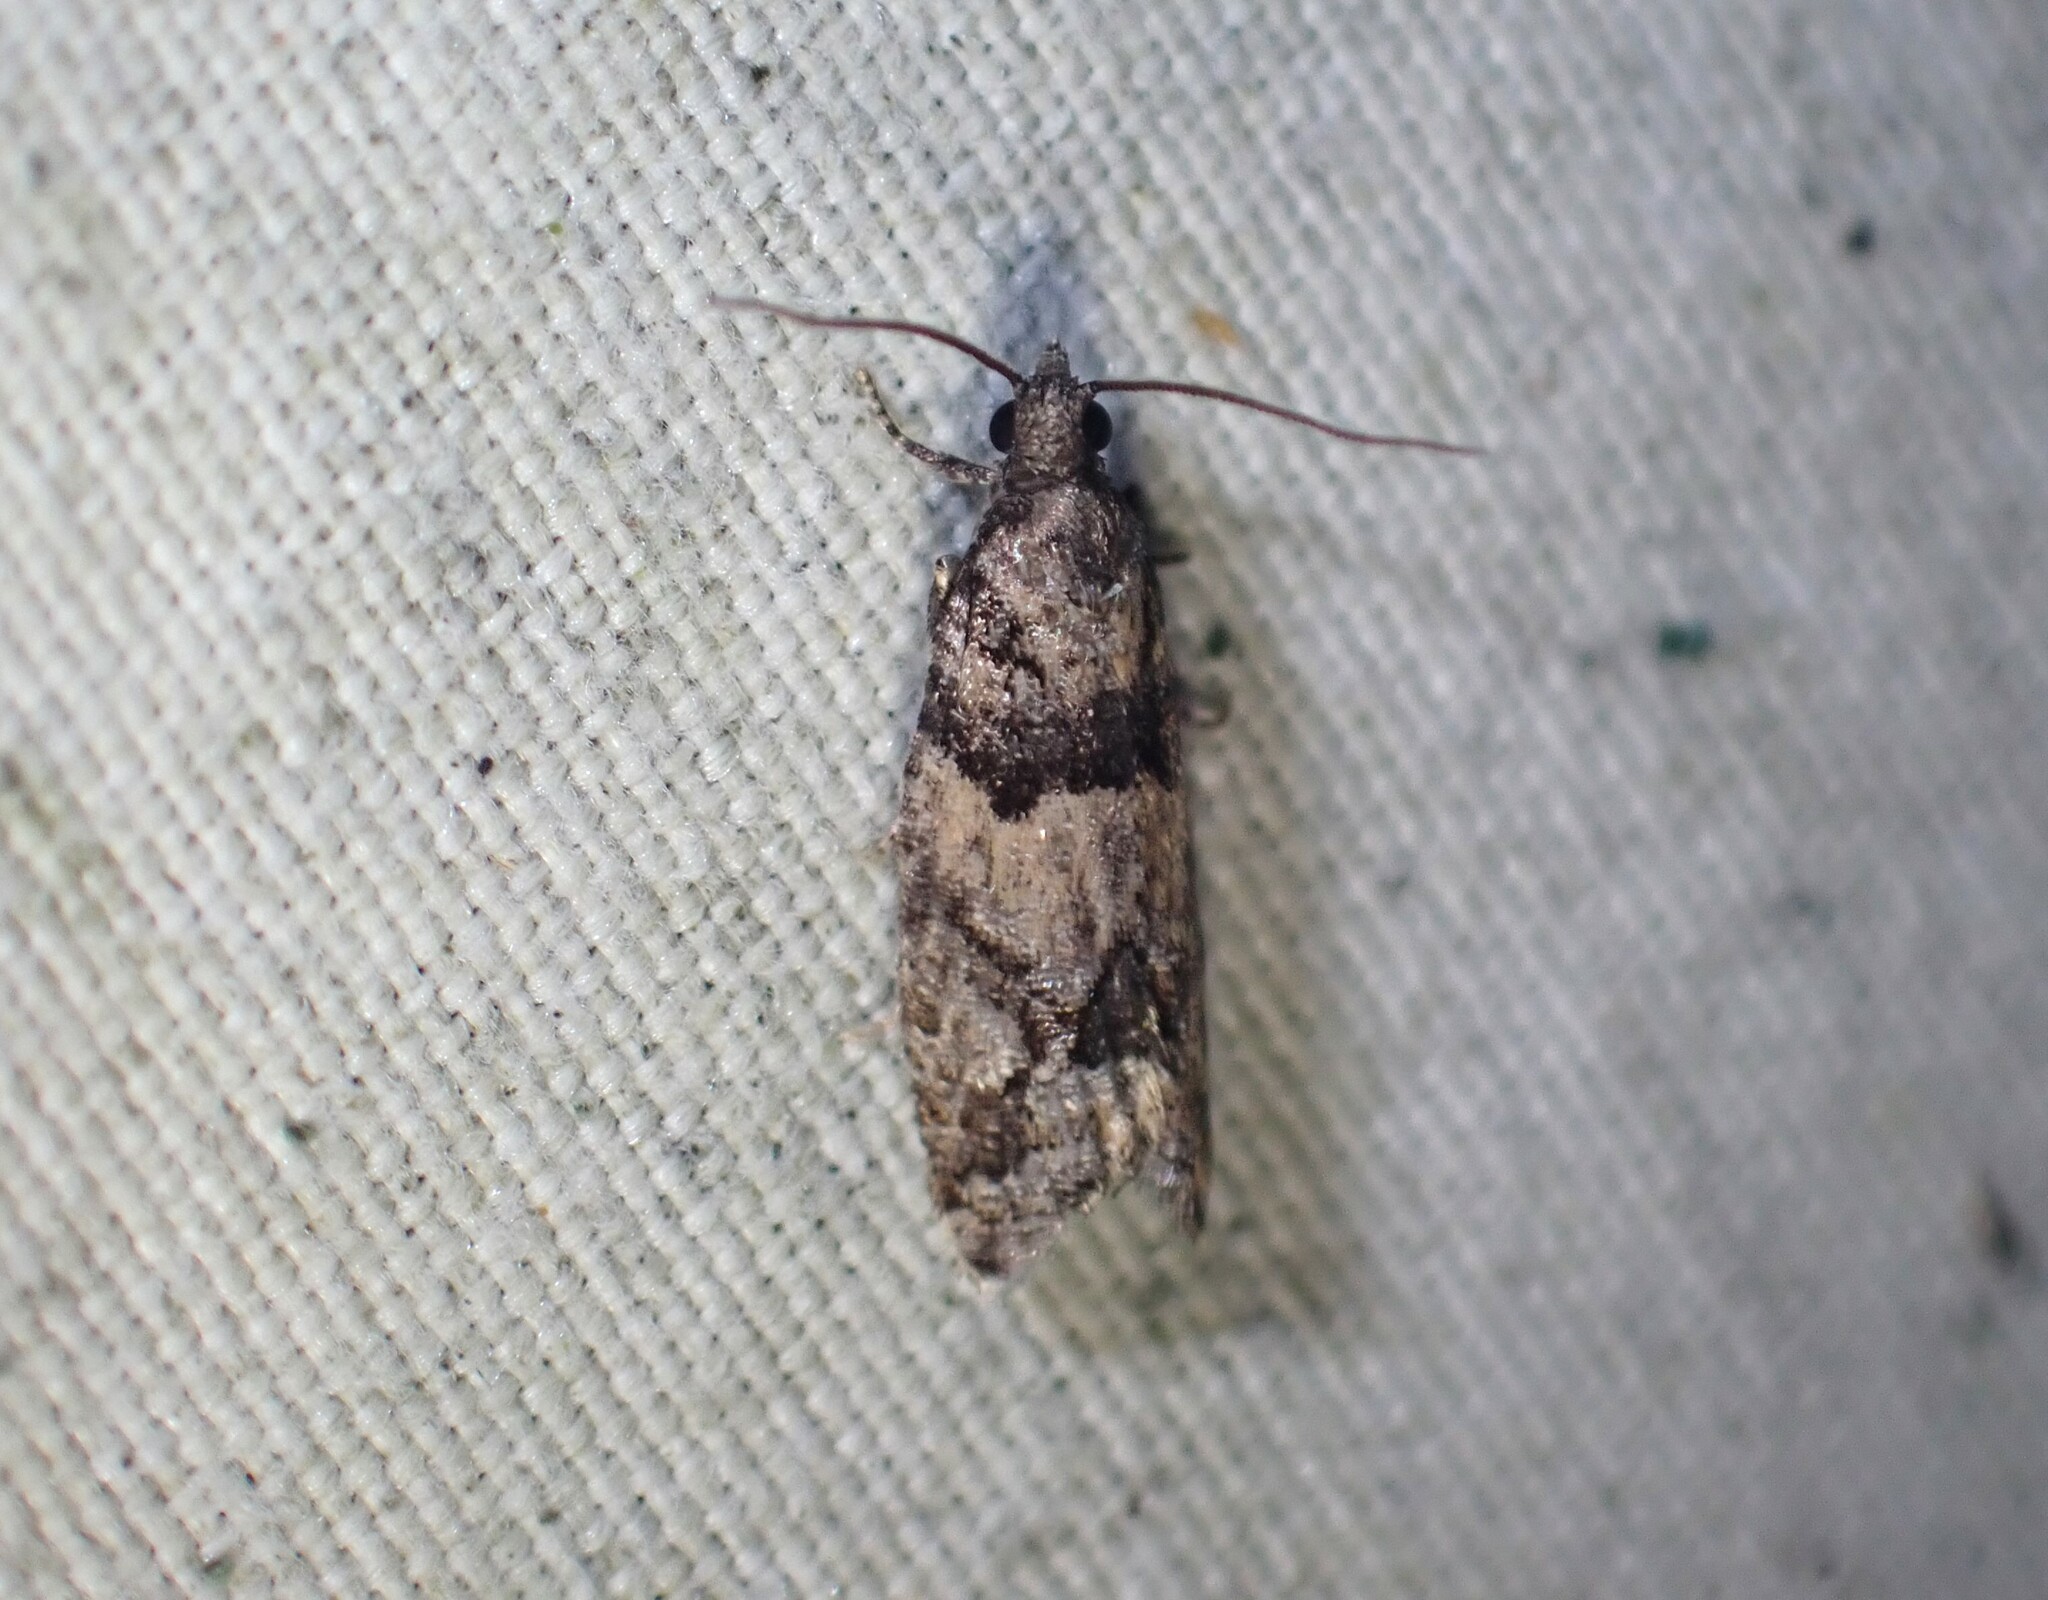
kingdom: Animalia
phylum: Arthropoda
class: Insecta
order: Lepidoptera
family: Tortricidae
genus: Epinotia
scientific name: Epinotia radicana
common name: Red-striped needleworm moth
